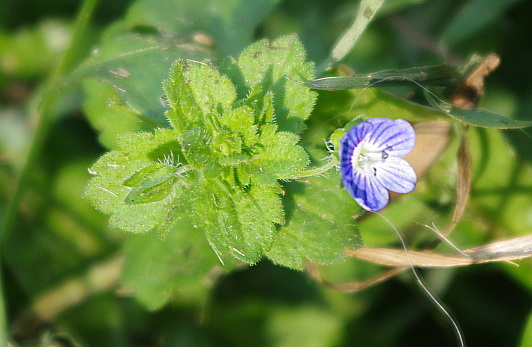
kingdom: Plantae
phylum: Tracheophyta
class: Magnoliopsida
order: Lamiales
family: Plantaginaceae
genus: Veronica
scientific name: Veronica persica
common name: Common field-speedwell
